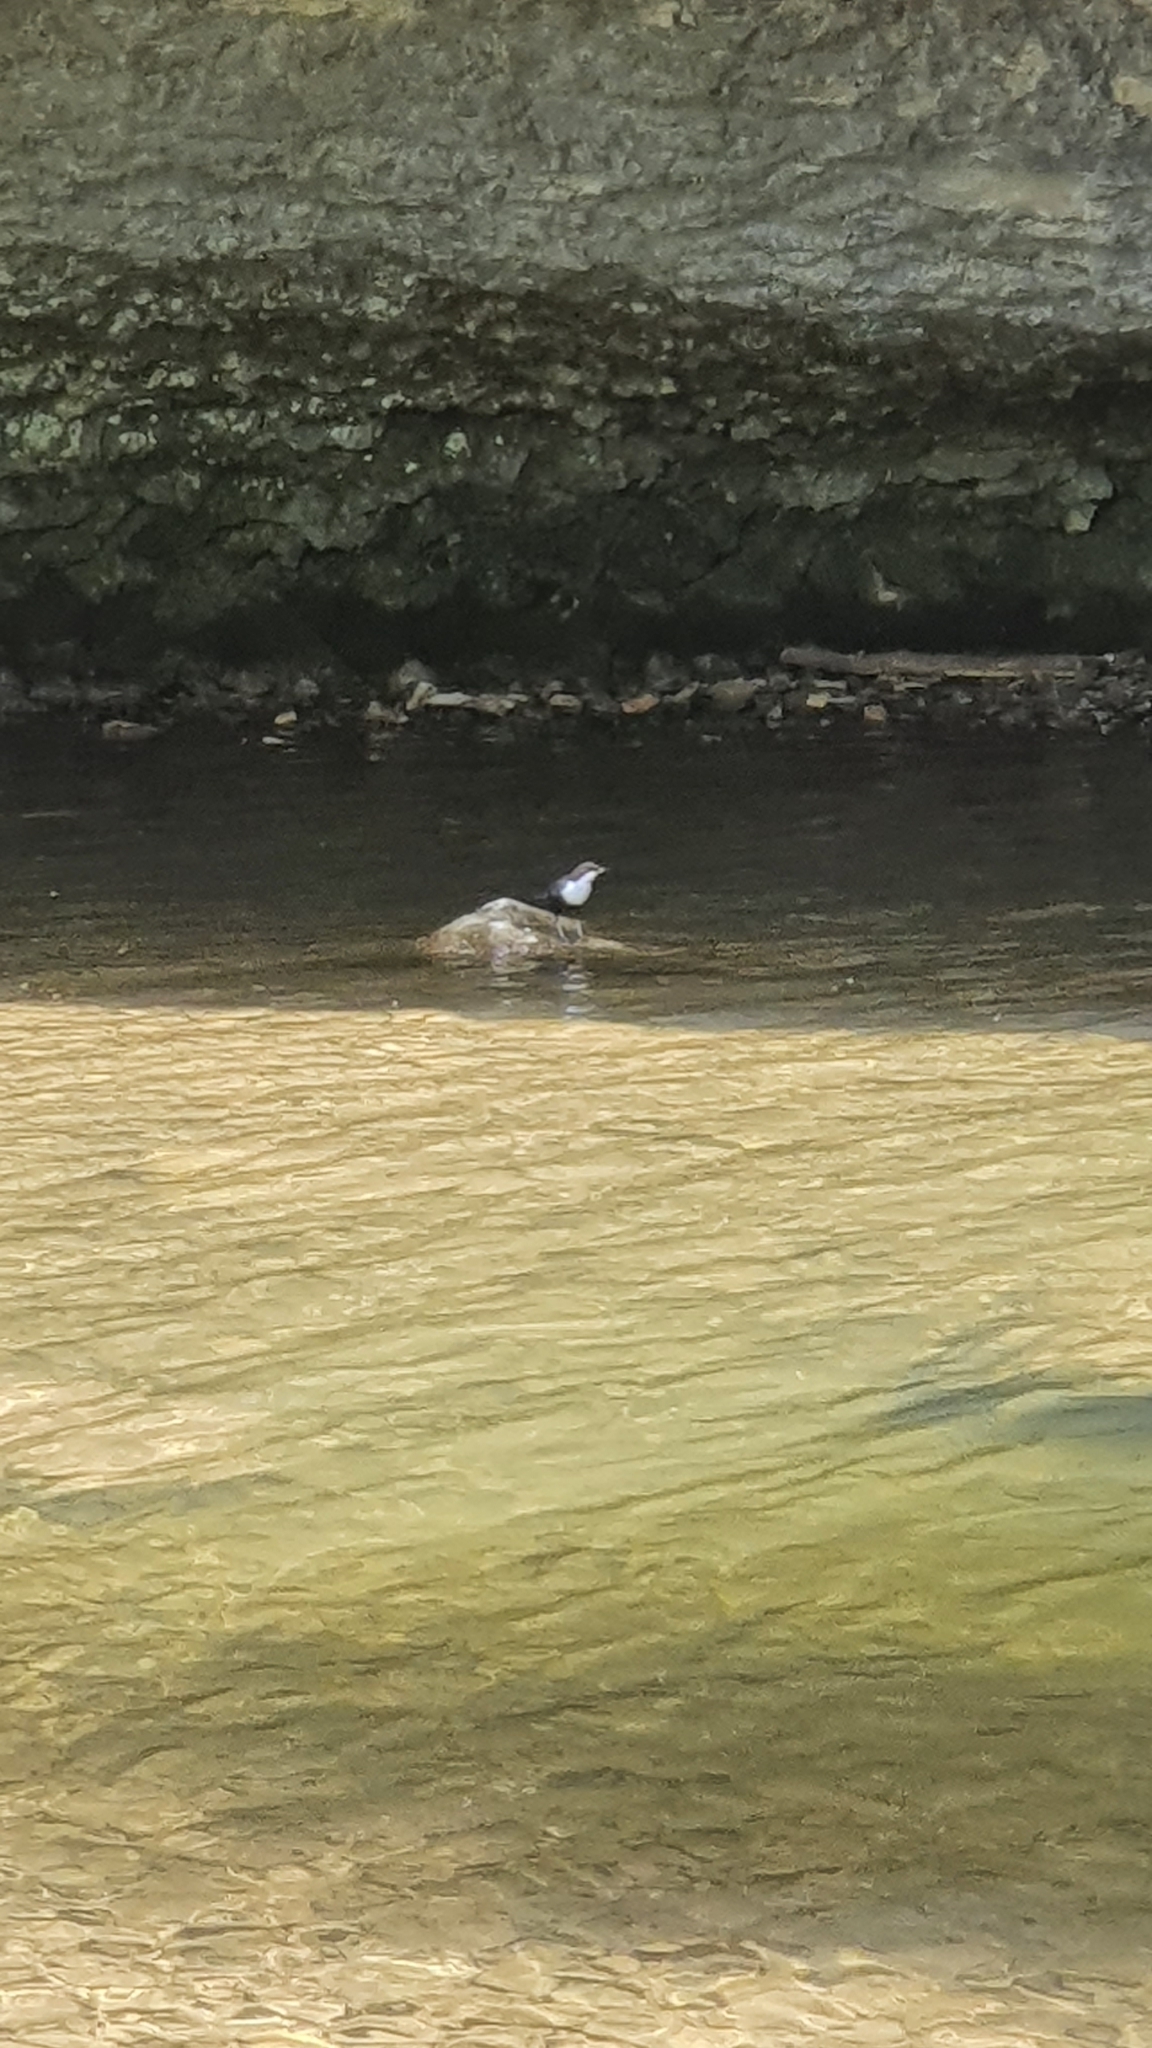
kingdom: Animalia
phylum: Chordata
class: Aves
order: Passeriformes
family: Cinclidae
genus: Cinclus
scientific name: Cinclus cinclus
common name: White-throated dipper
